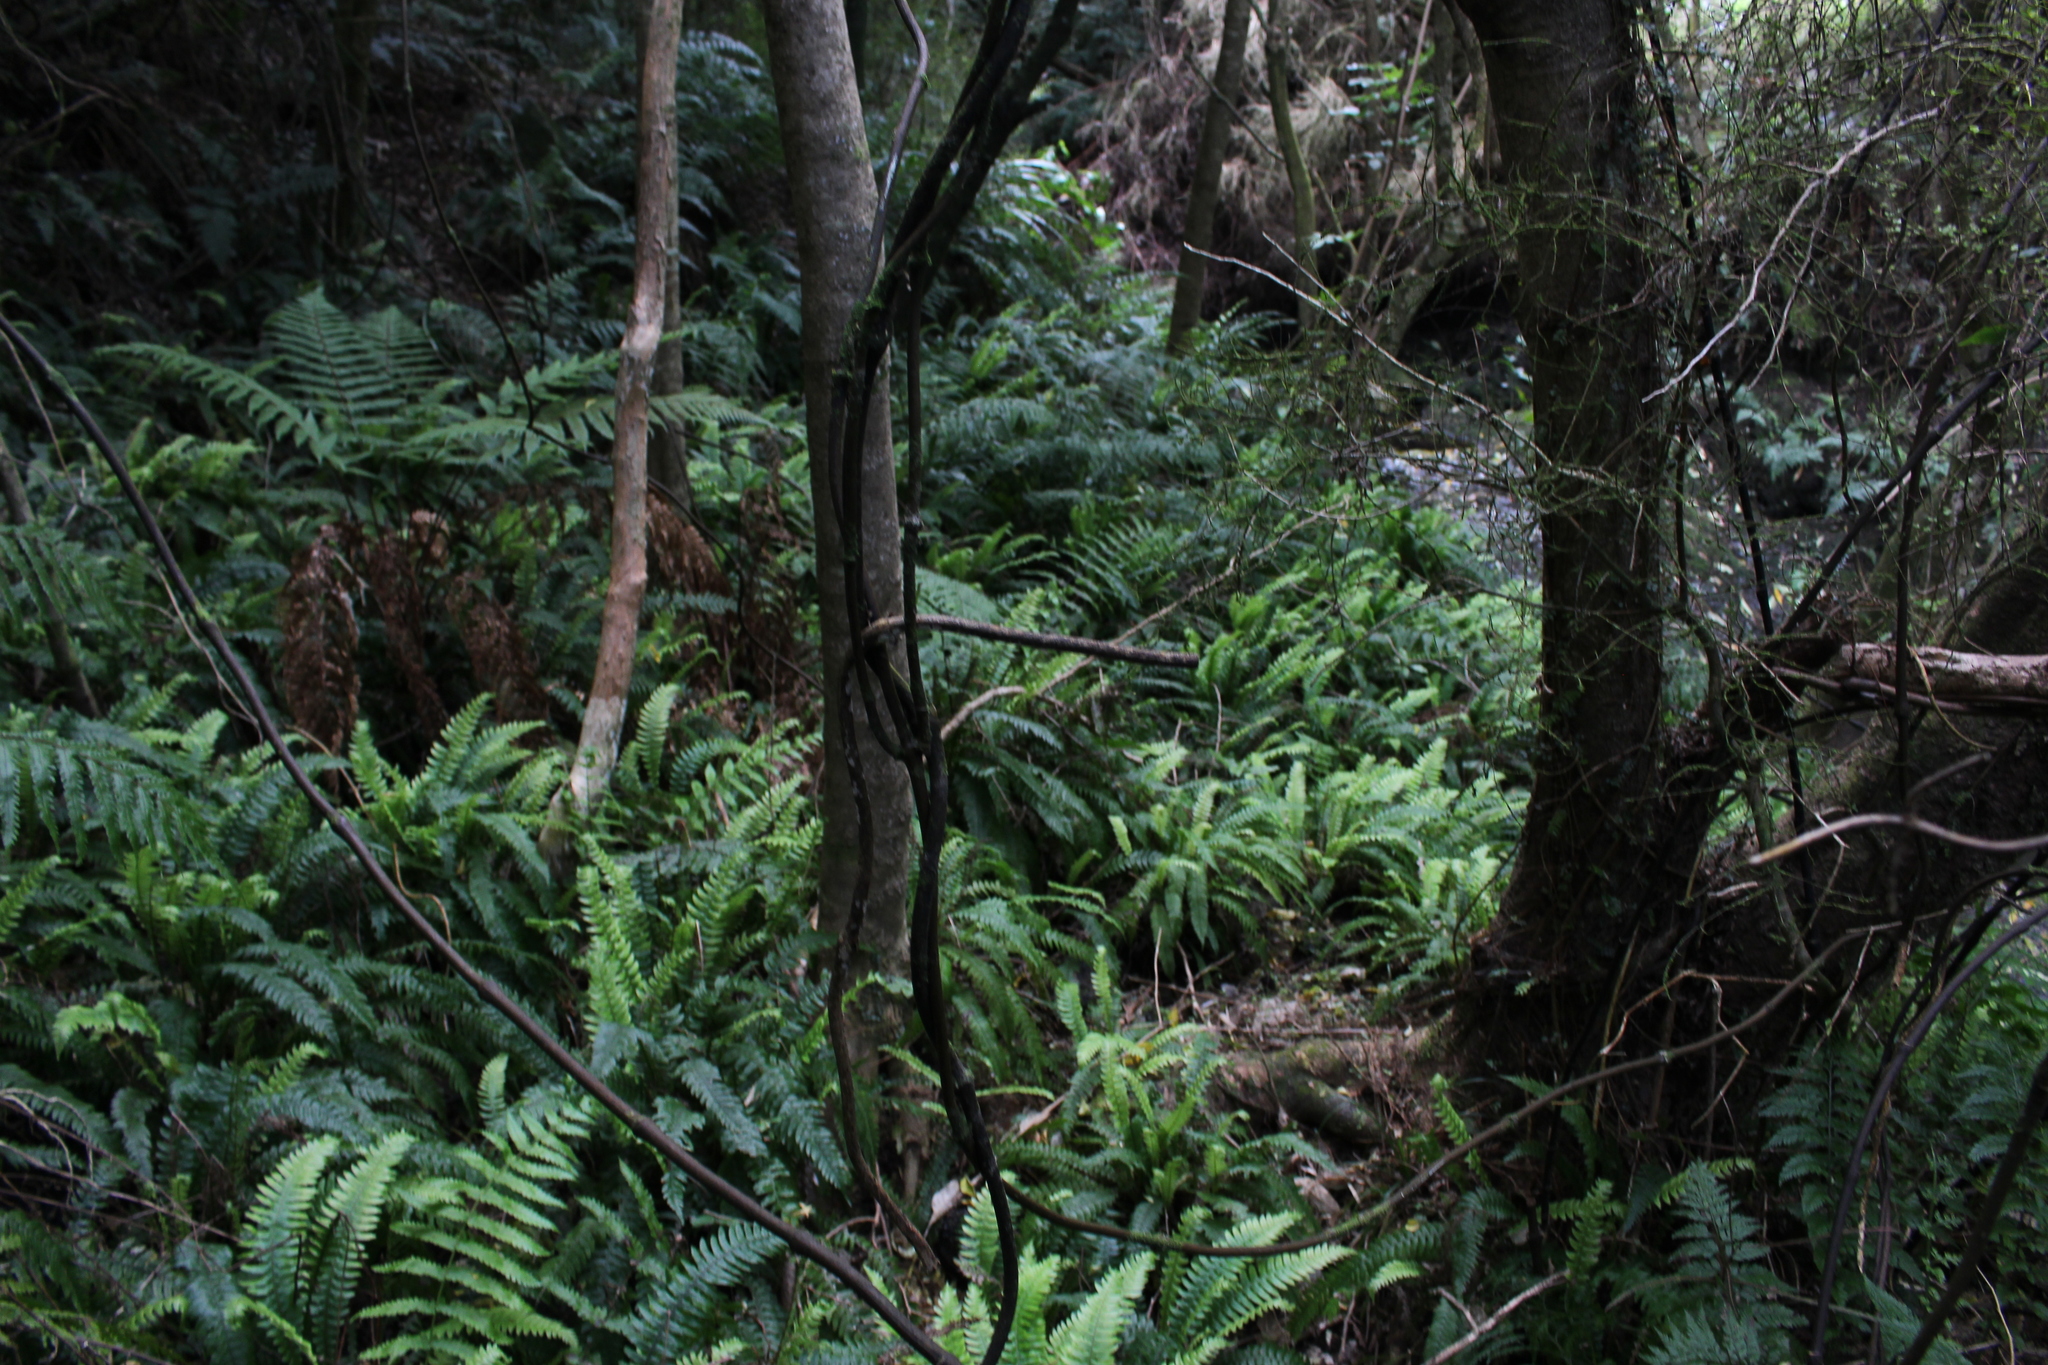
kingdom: Plantae
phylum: Tracheophyta
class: Polypodiopsida
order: Polypodiales
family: Blechnaceae
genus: Austroblechnum
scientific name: Austroblechnum lanceolatum
